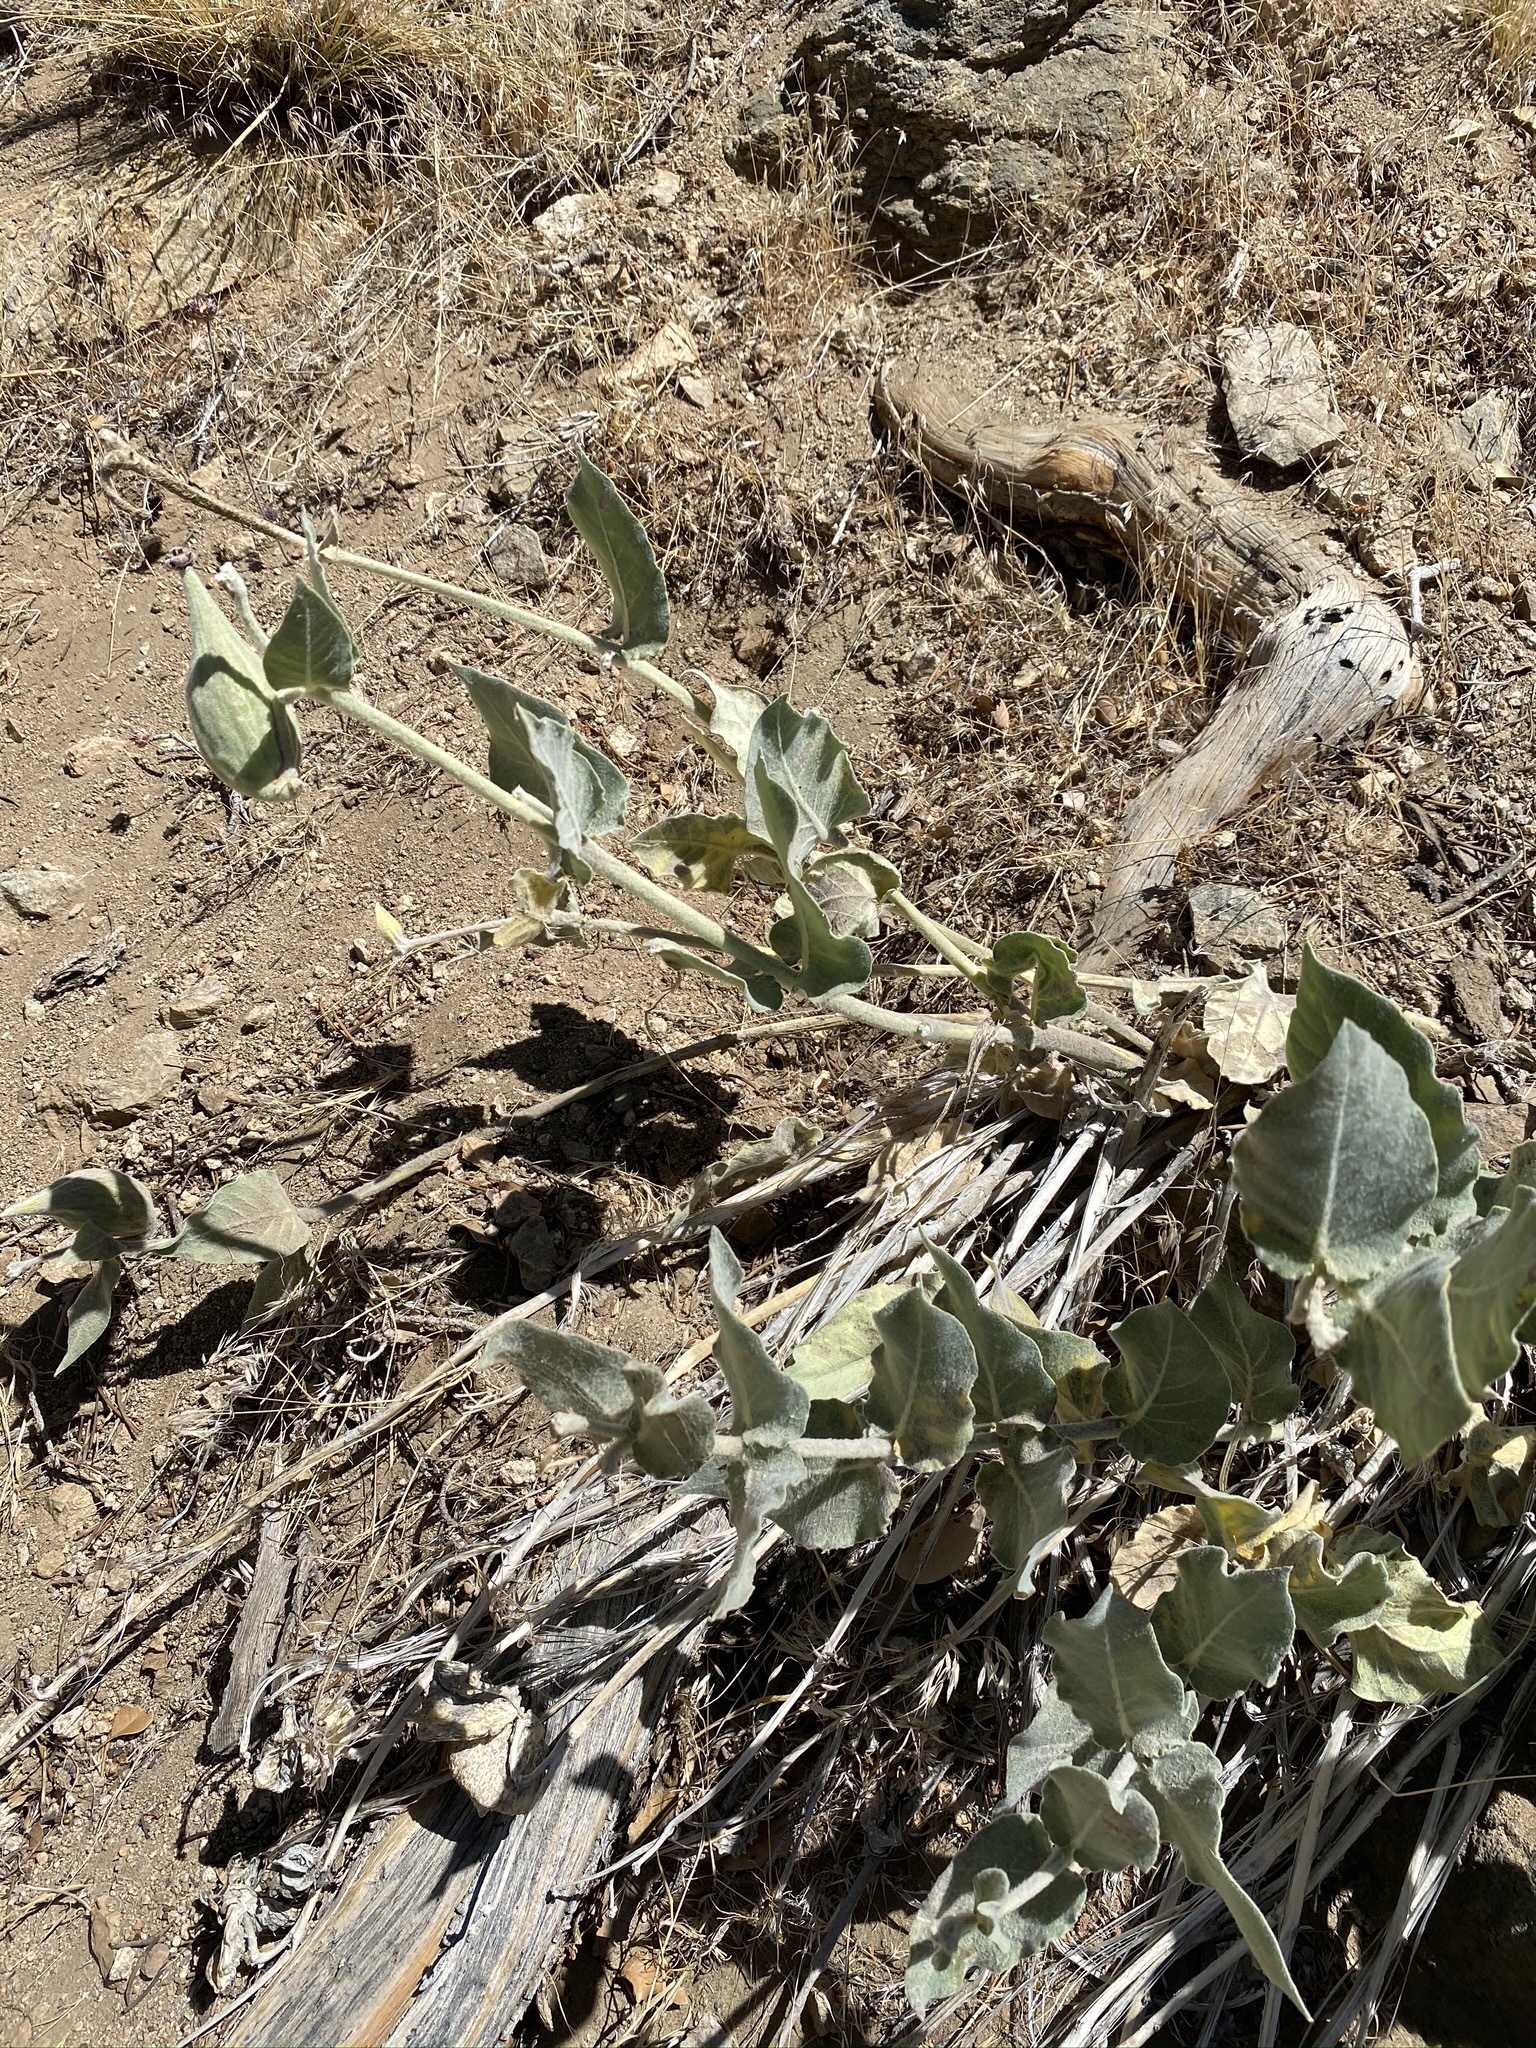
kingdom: Plantae
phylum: Tracheophyta
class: Magnoliopsida
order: Gentianales
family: Apocynaceae
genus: Asclepias
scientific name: Asclepias californica
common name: California milkweed
